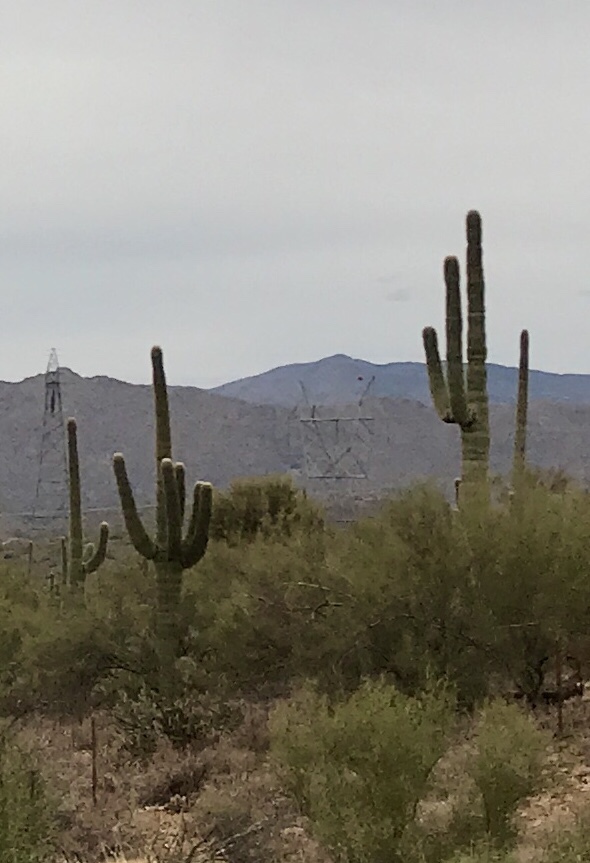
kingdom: Plantae
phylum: Tracheophyta
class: Magnoliopsida
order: Caryophyllales
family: Cactaceae
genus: Carnegiea
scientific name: Carnegiea gigantea
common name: Saguaro
